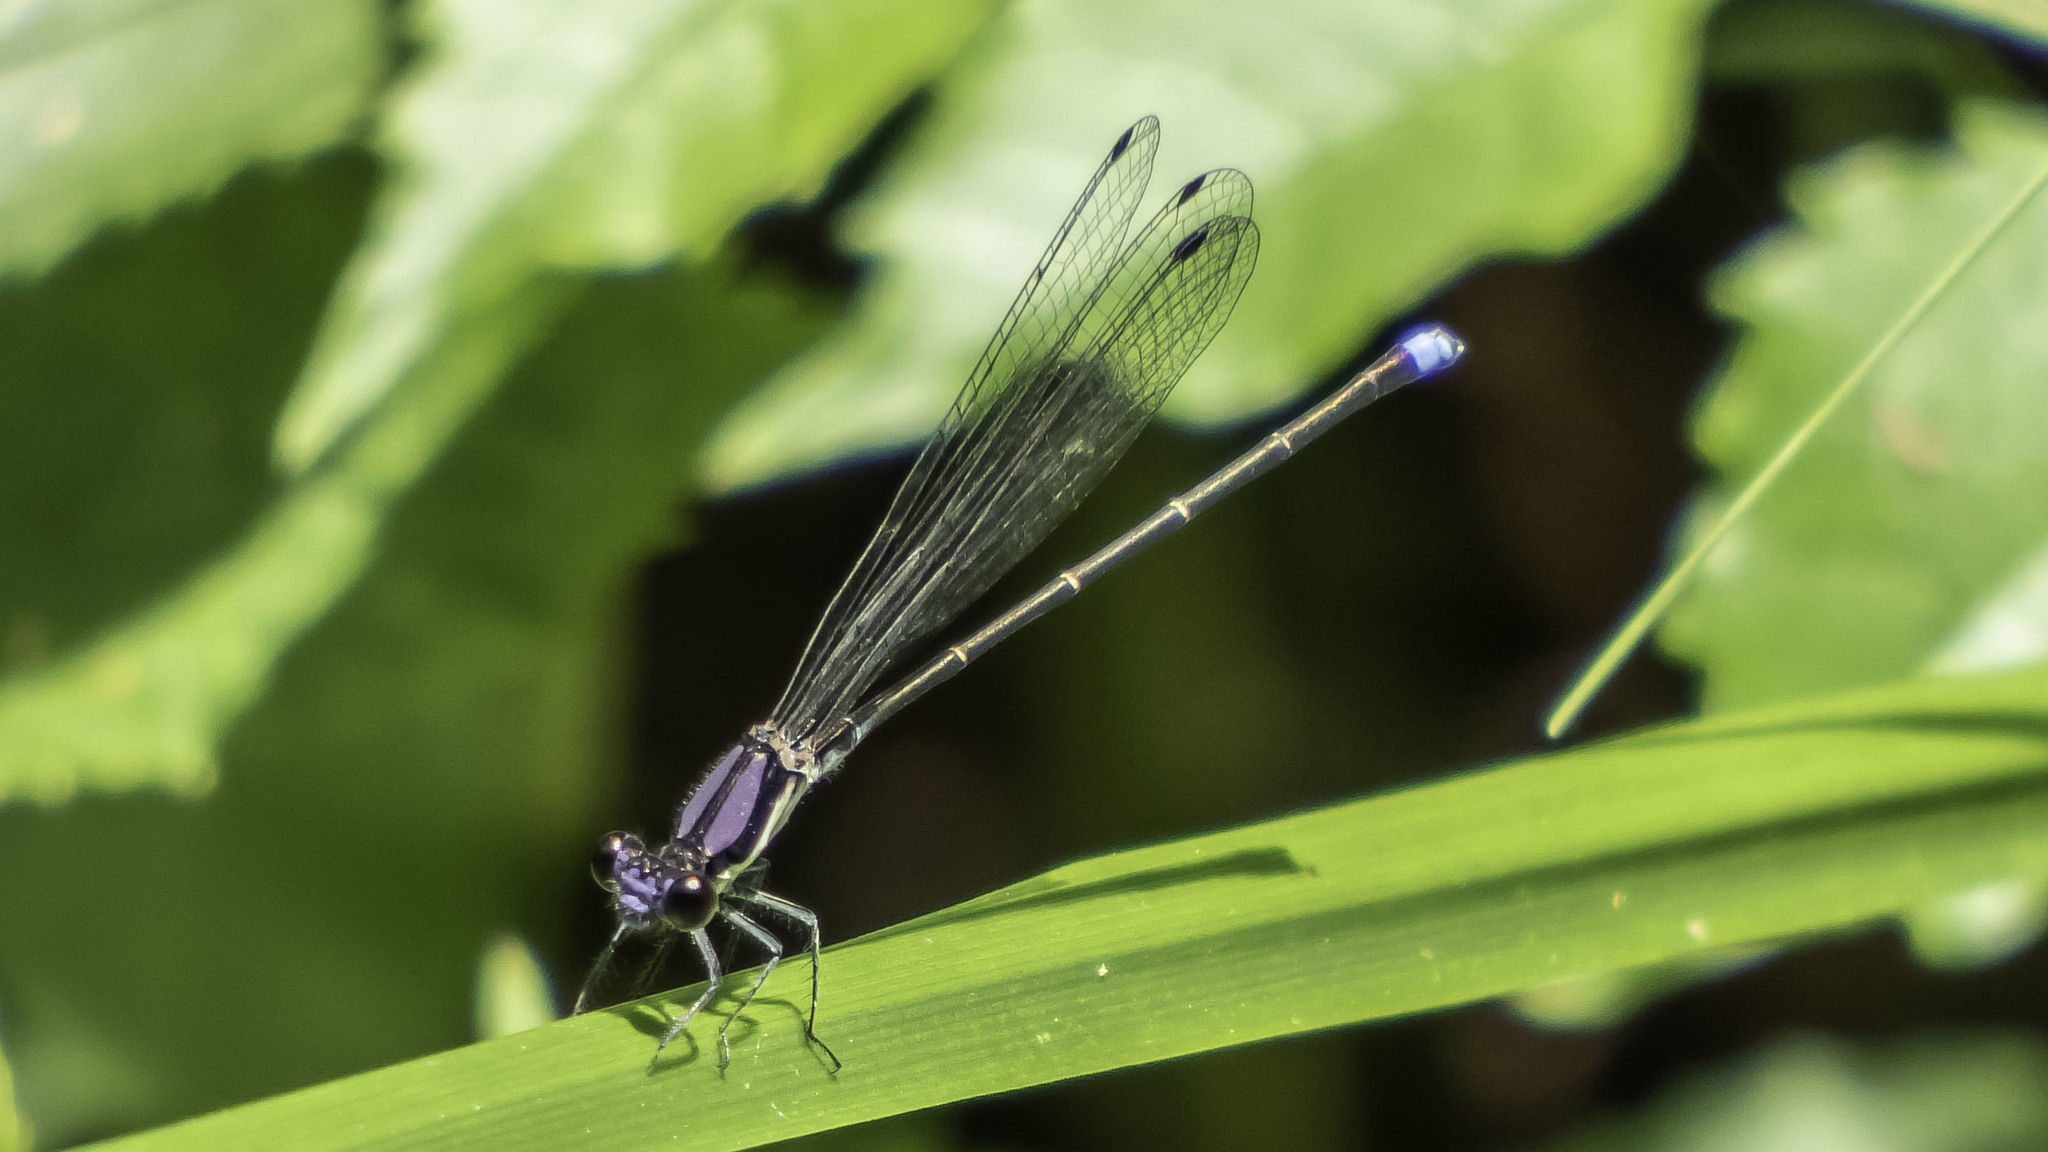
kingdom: Animalia
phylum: Arthropoda
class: Insecta
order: Odonata
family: Coenagrionidae
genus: Argia
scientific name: Argia tibialis
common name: Blue-tipped dancer
